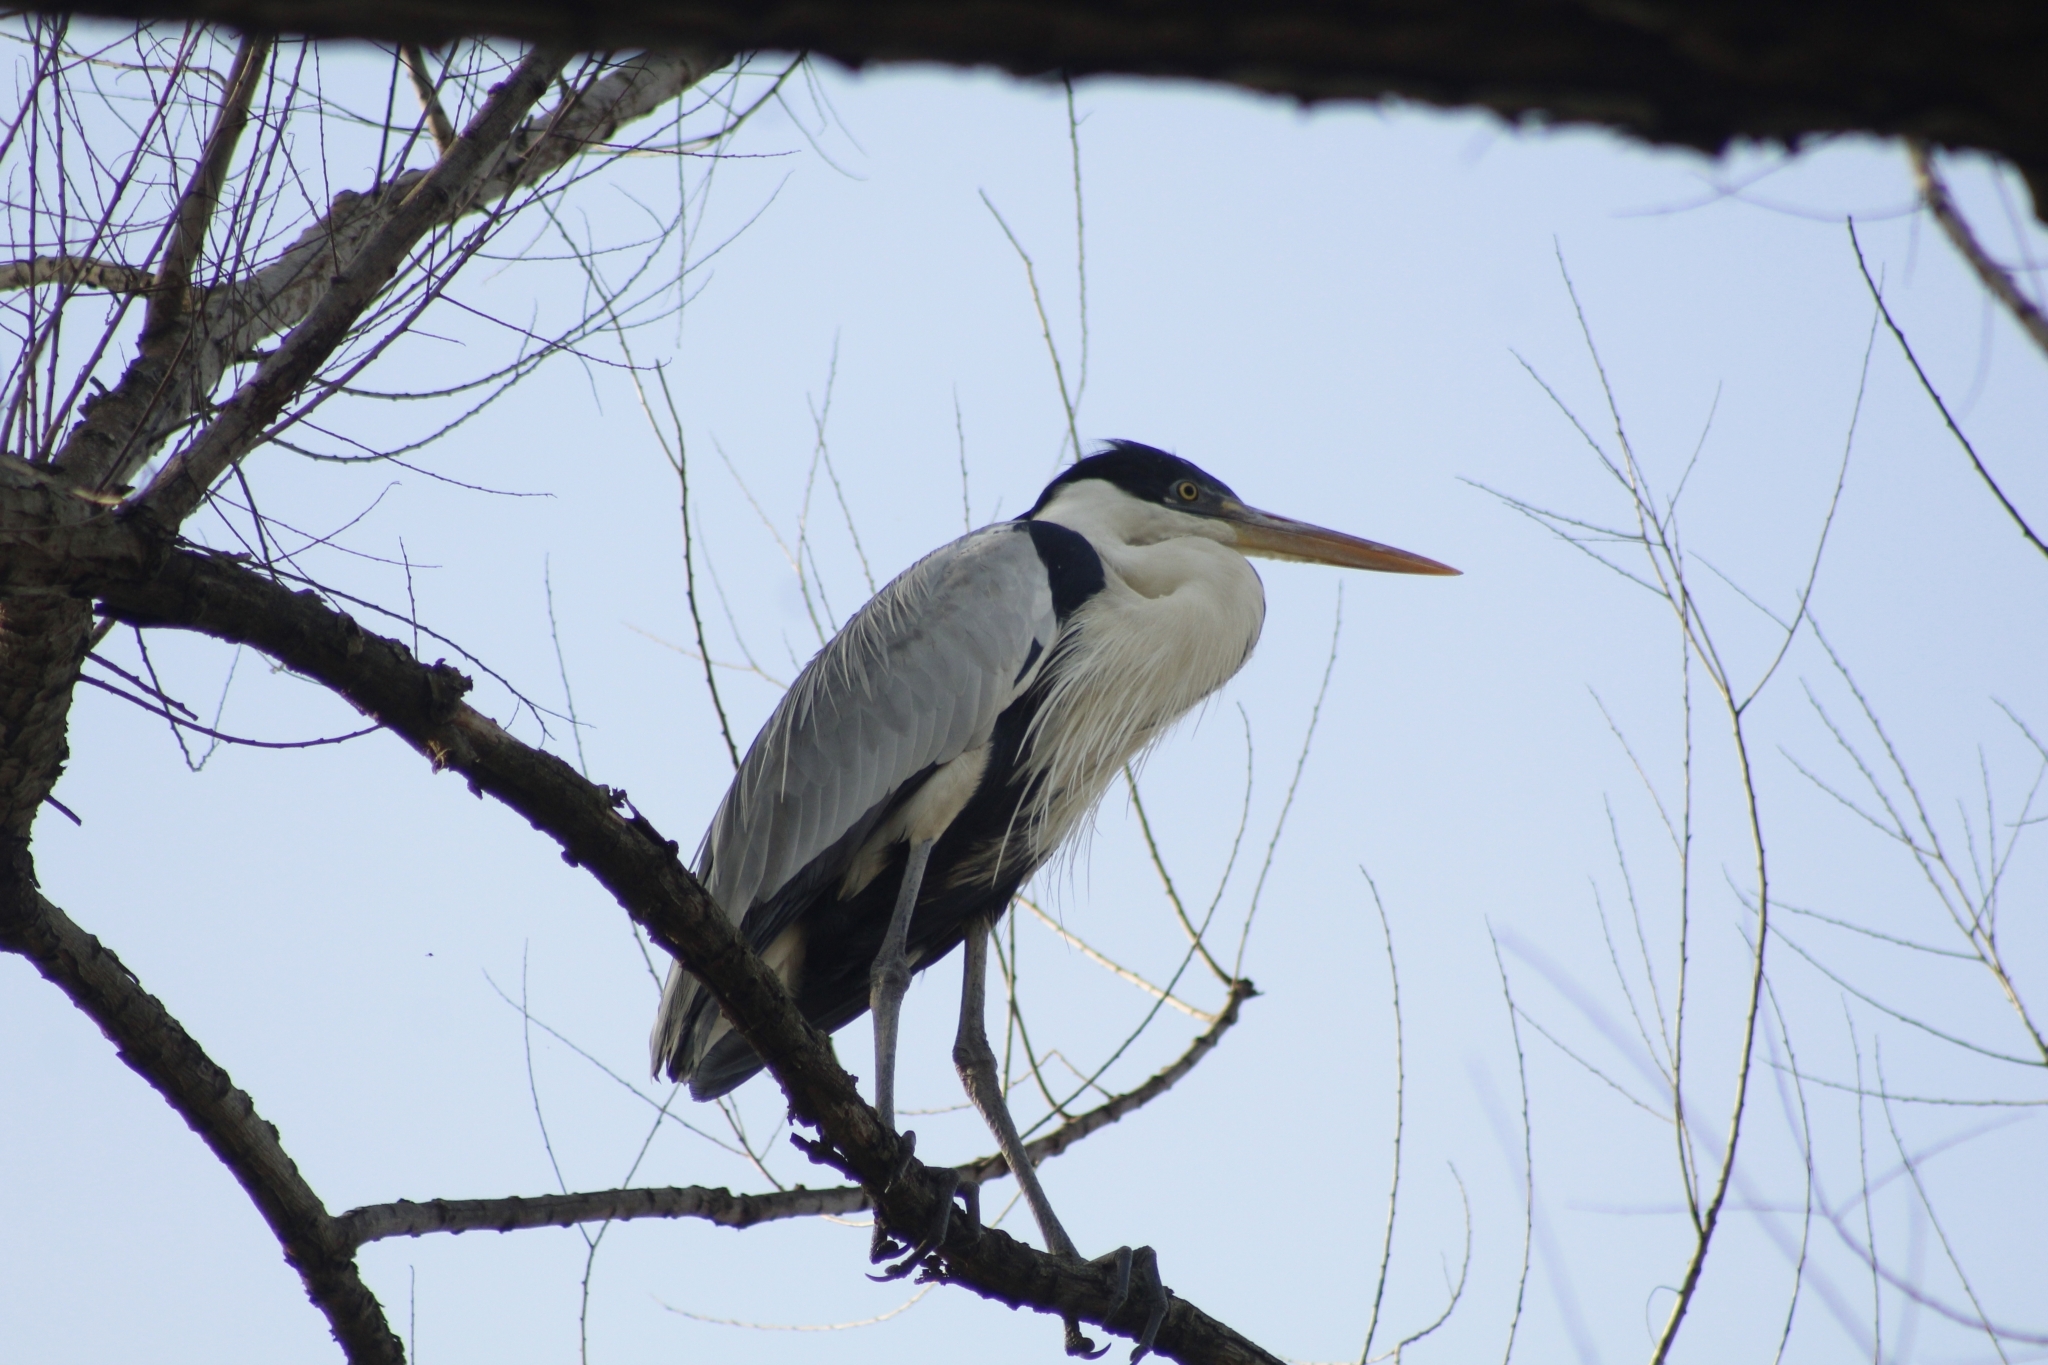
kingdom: Animalia
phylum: Chordata
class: Aves
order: Pelecaniformes
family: Ardeidae
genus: Ardea
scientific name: Ardea cocoi
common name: Cocoi heron
